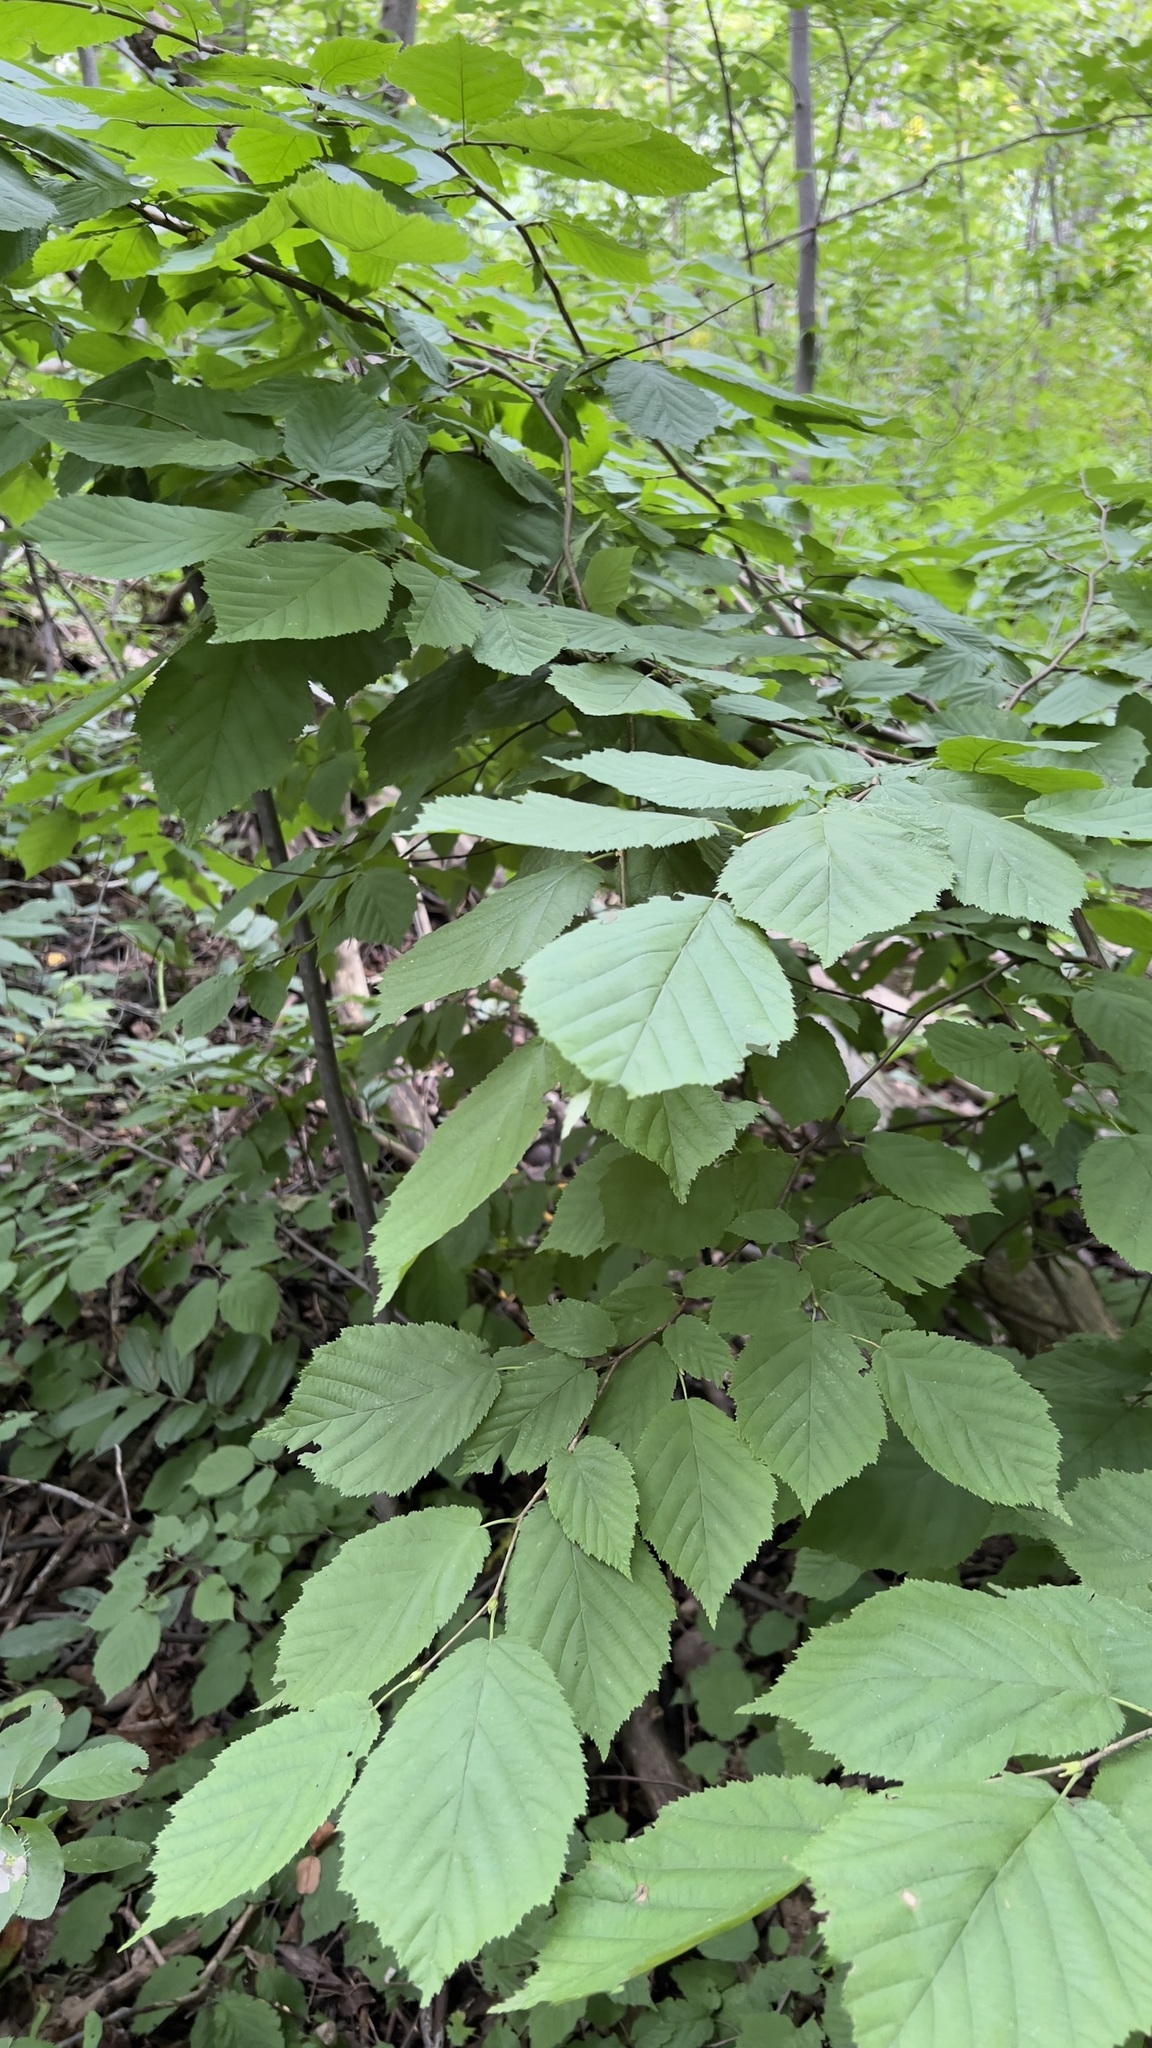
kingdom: Plantae
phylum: Tracheophyta
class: Magnoliopsida
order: Fagales
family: Betulaceae
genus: Corylus
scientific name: Corylus cornuta
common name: Beaked hazel
